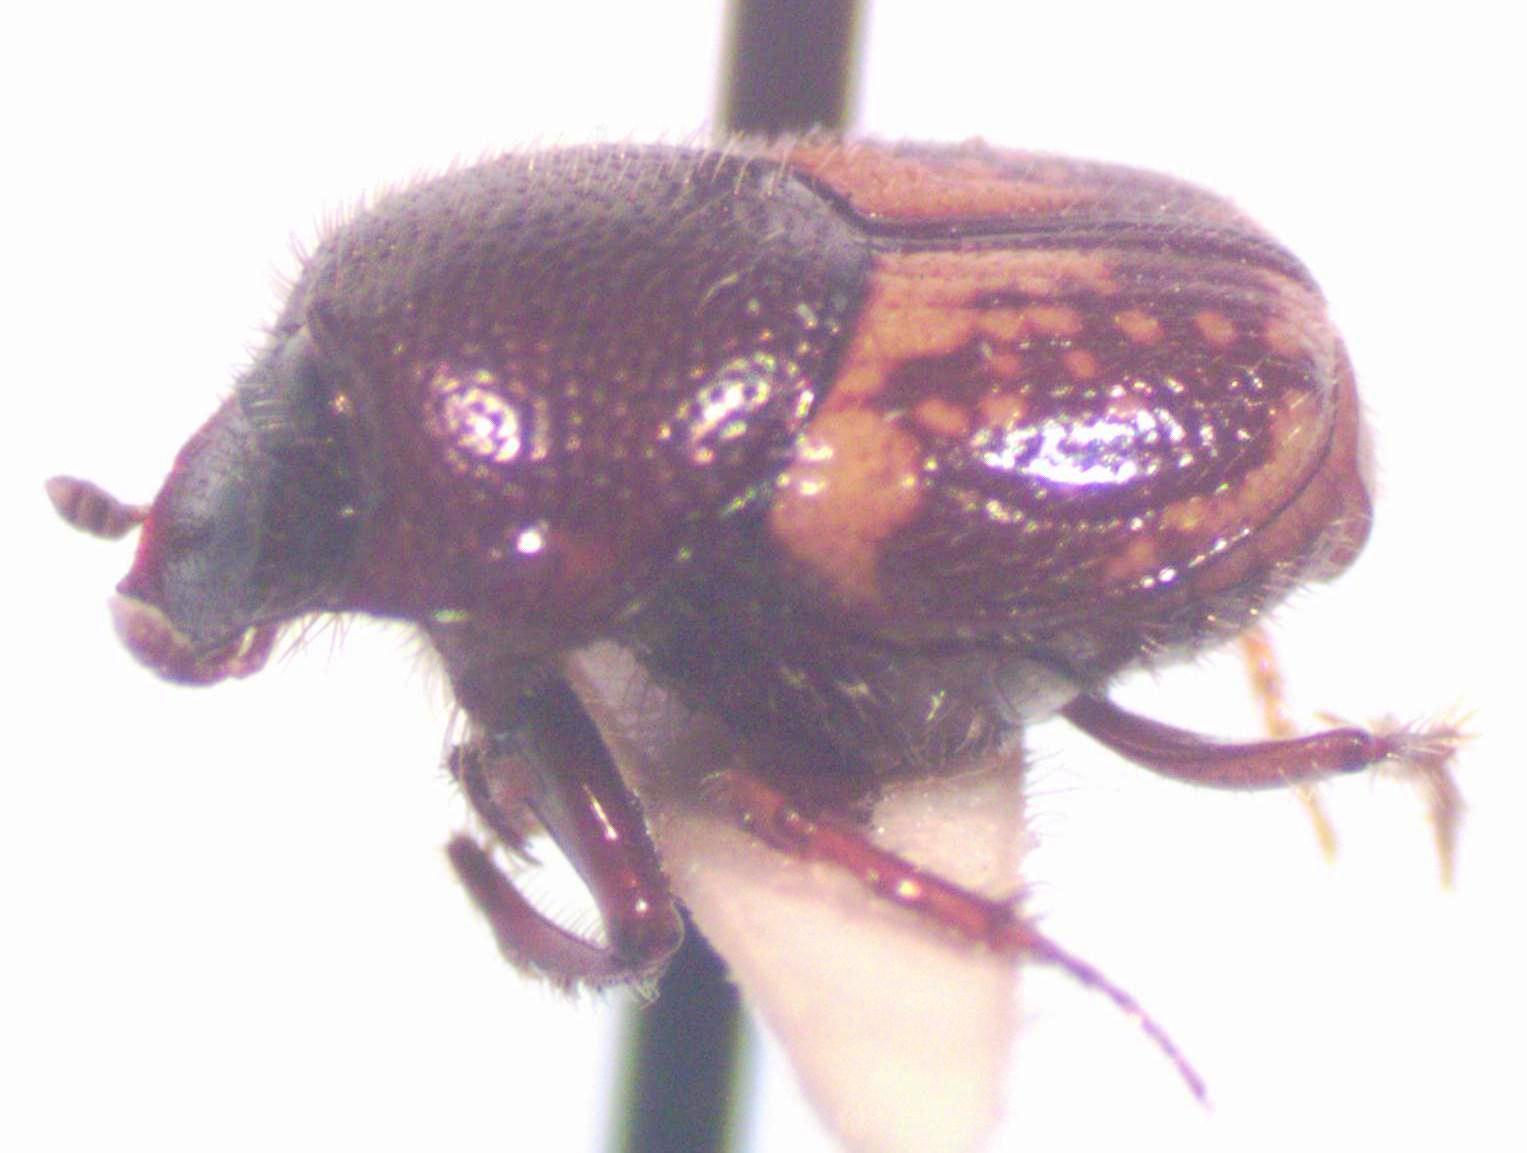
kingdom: Animalia
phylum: Arthropoda
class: Insecta
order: Coleoptera
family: Scarabaeidae
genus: Onthophagus
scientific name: Onthophagus hoepfneri
